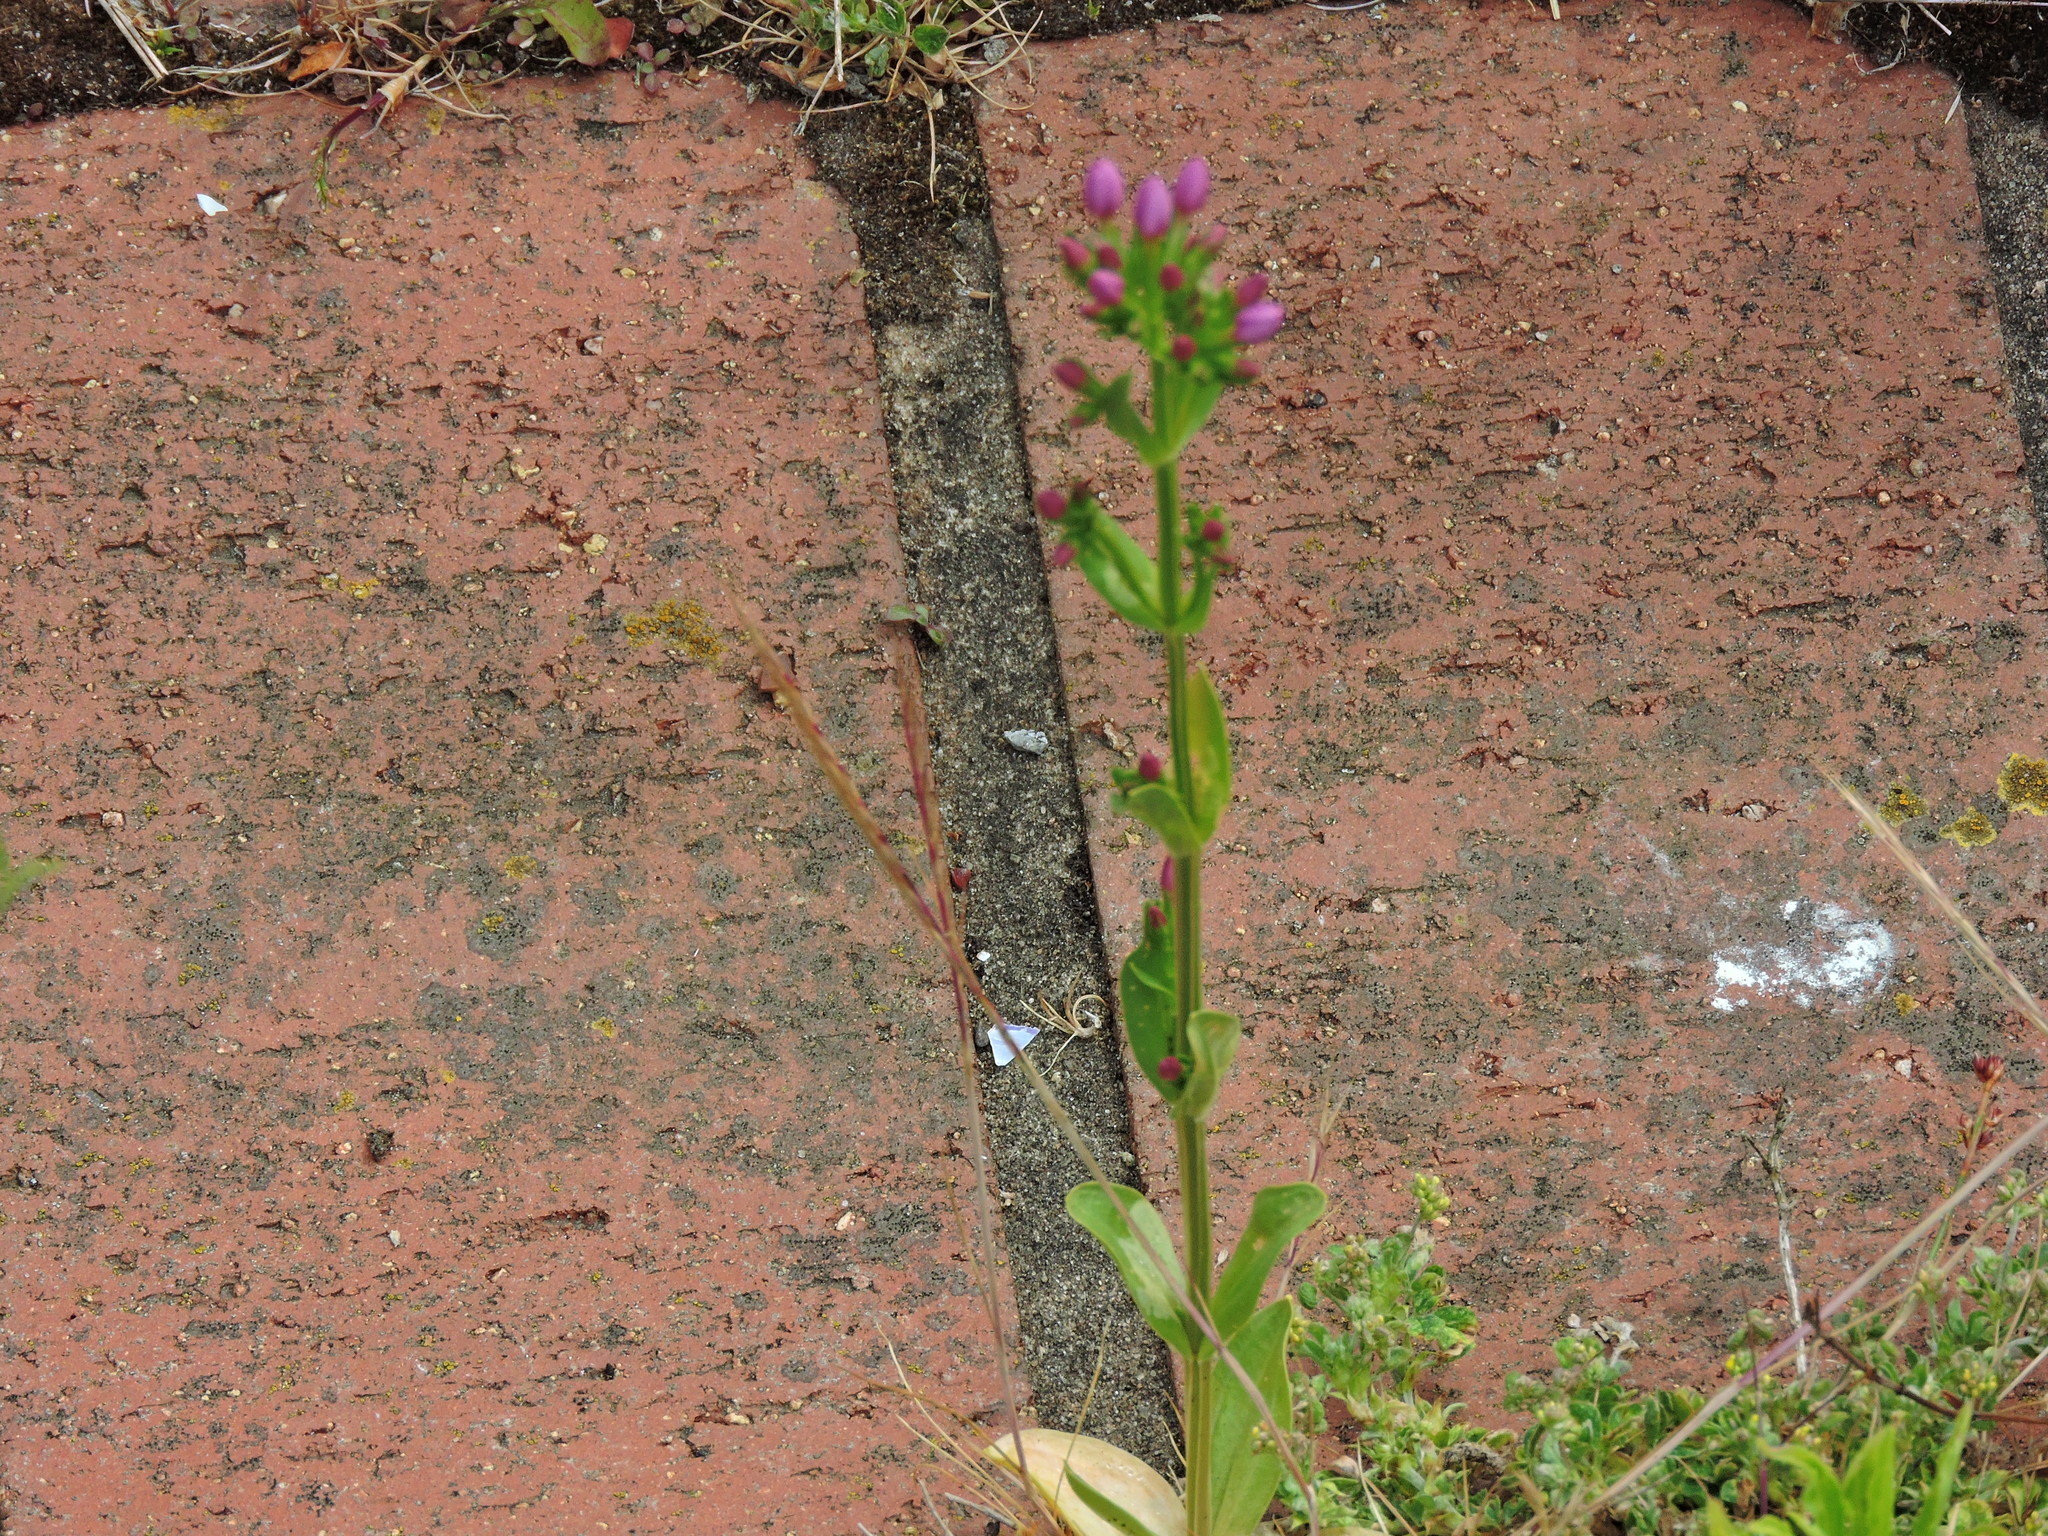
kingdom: Plantae
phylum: Tracheophyta
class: Magnoliopsida
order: Gentianales
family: Gentianaceae
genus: Centaurium
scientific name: Centaurium erythraea
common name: Common centaury
